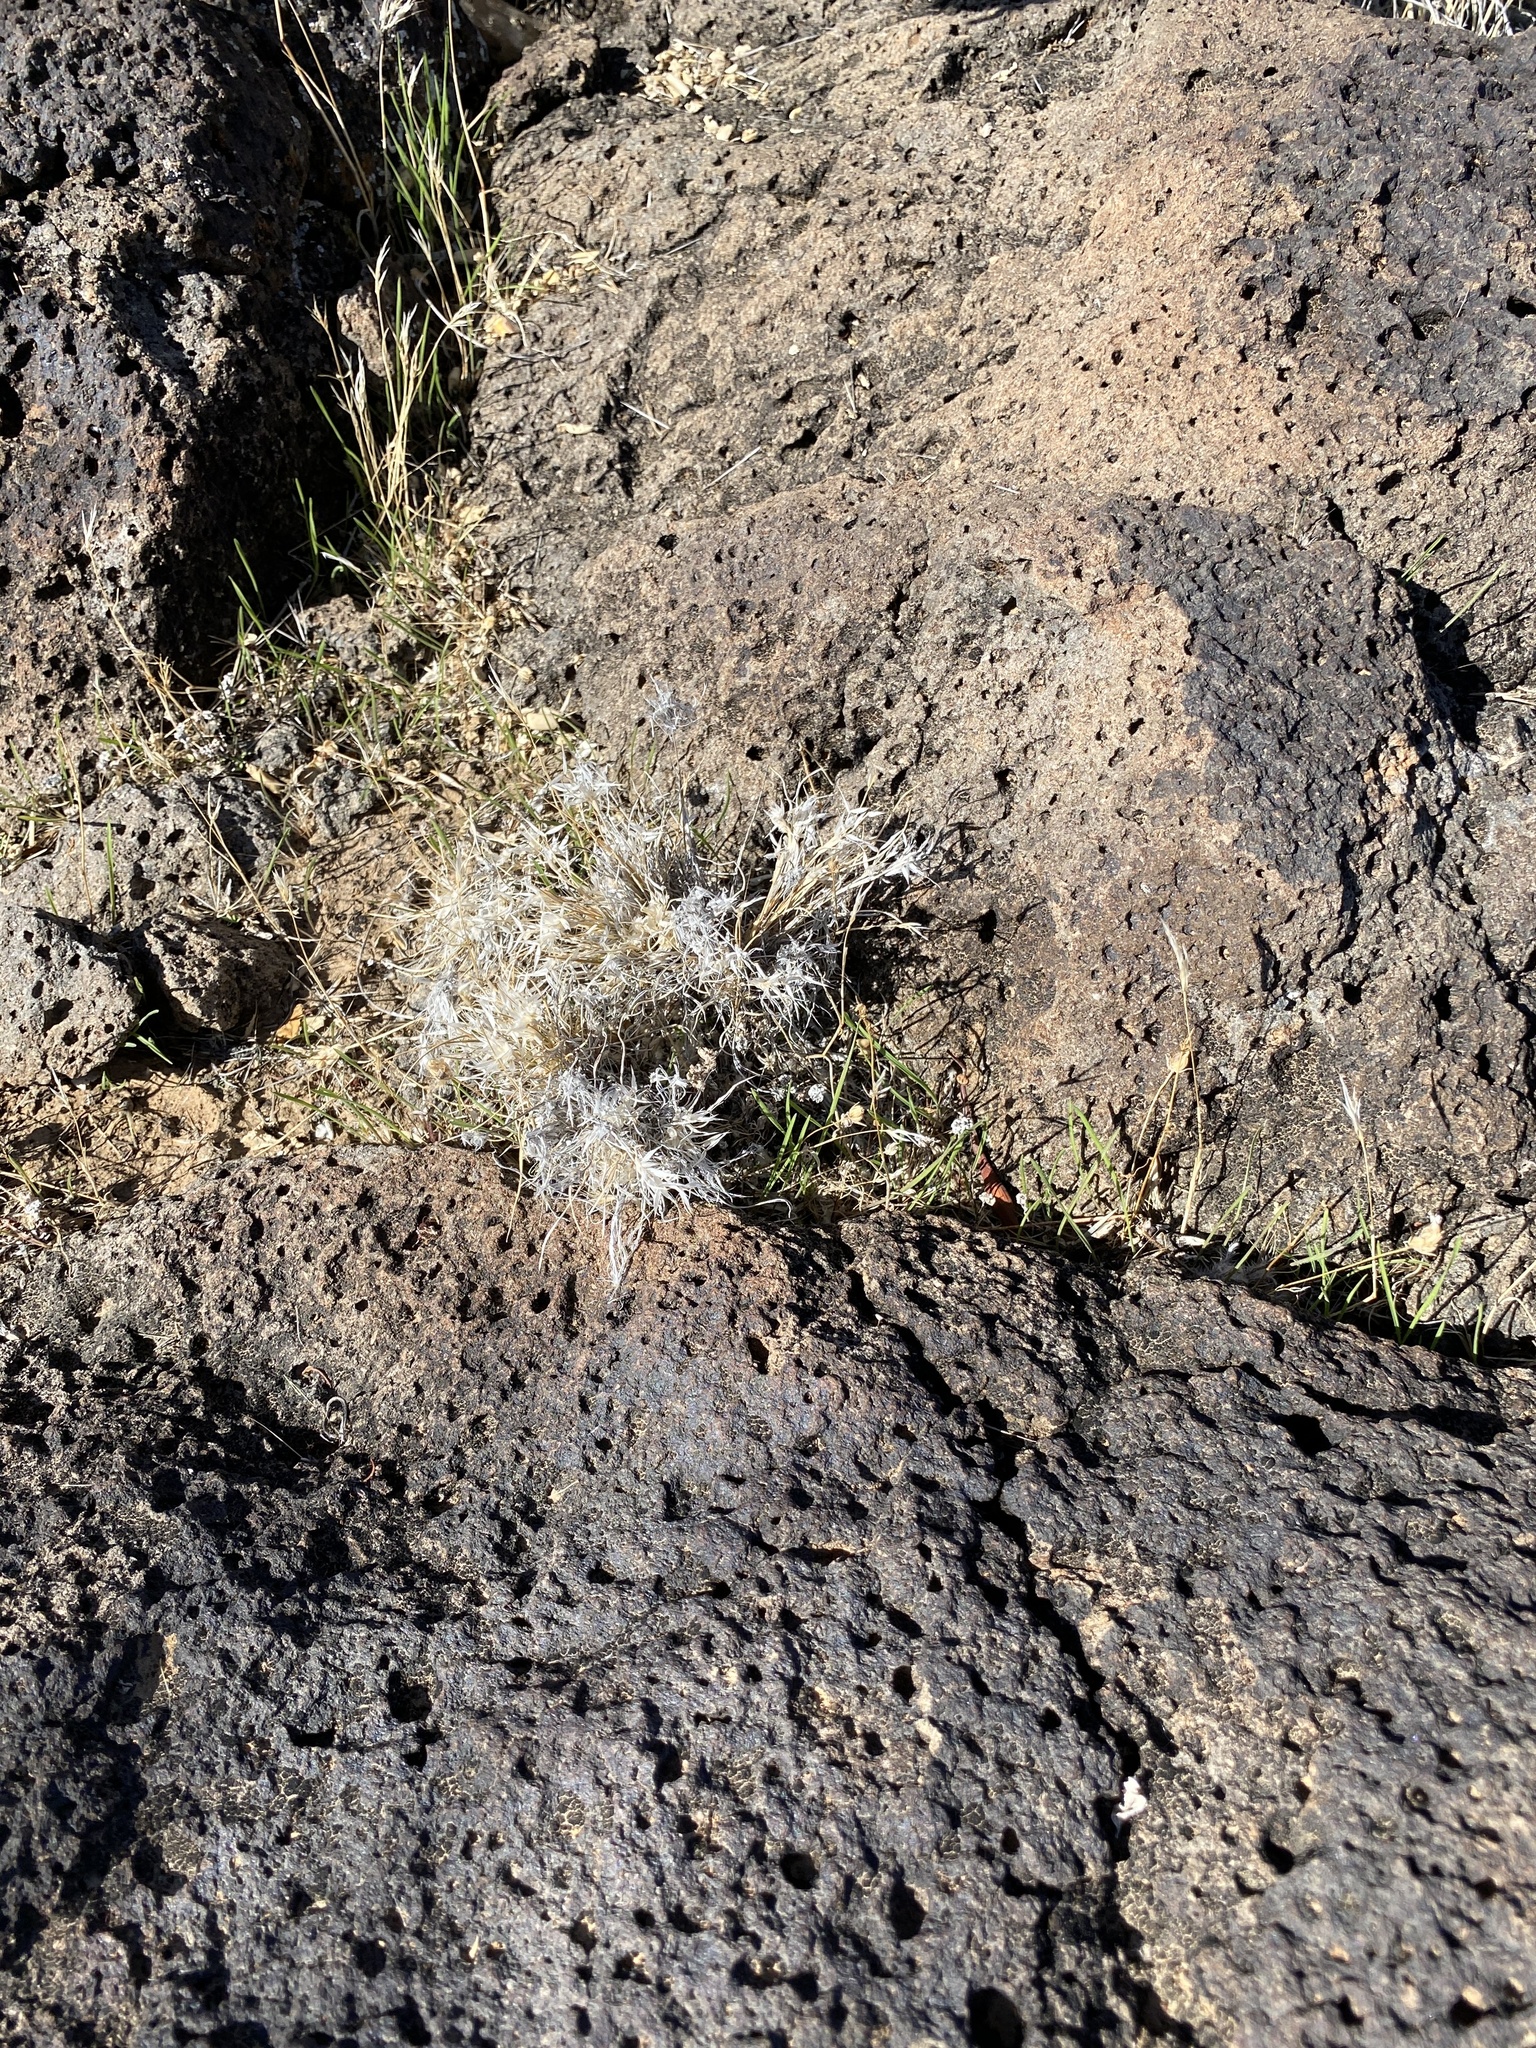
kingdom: Plantae
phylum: Tracheophyta
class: Liliopsida
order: Poales
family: Poaceae
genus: Dasyochloa
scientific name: Dasyochloa pulchella
